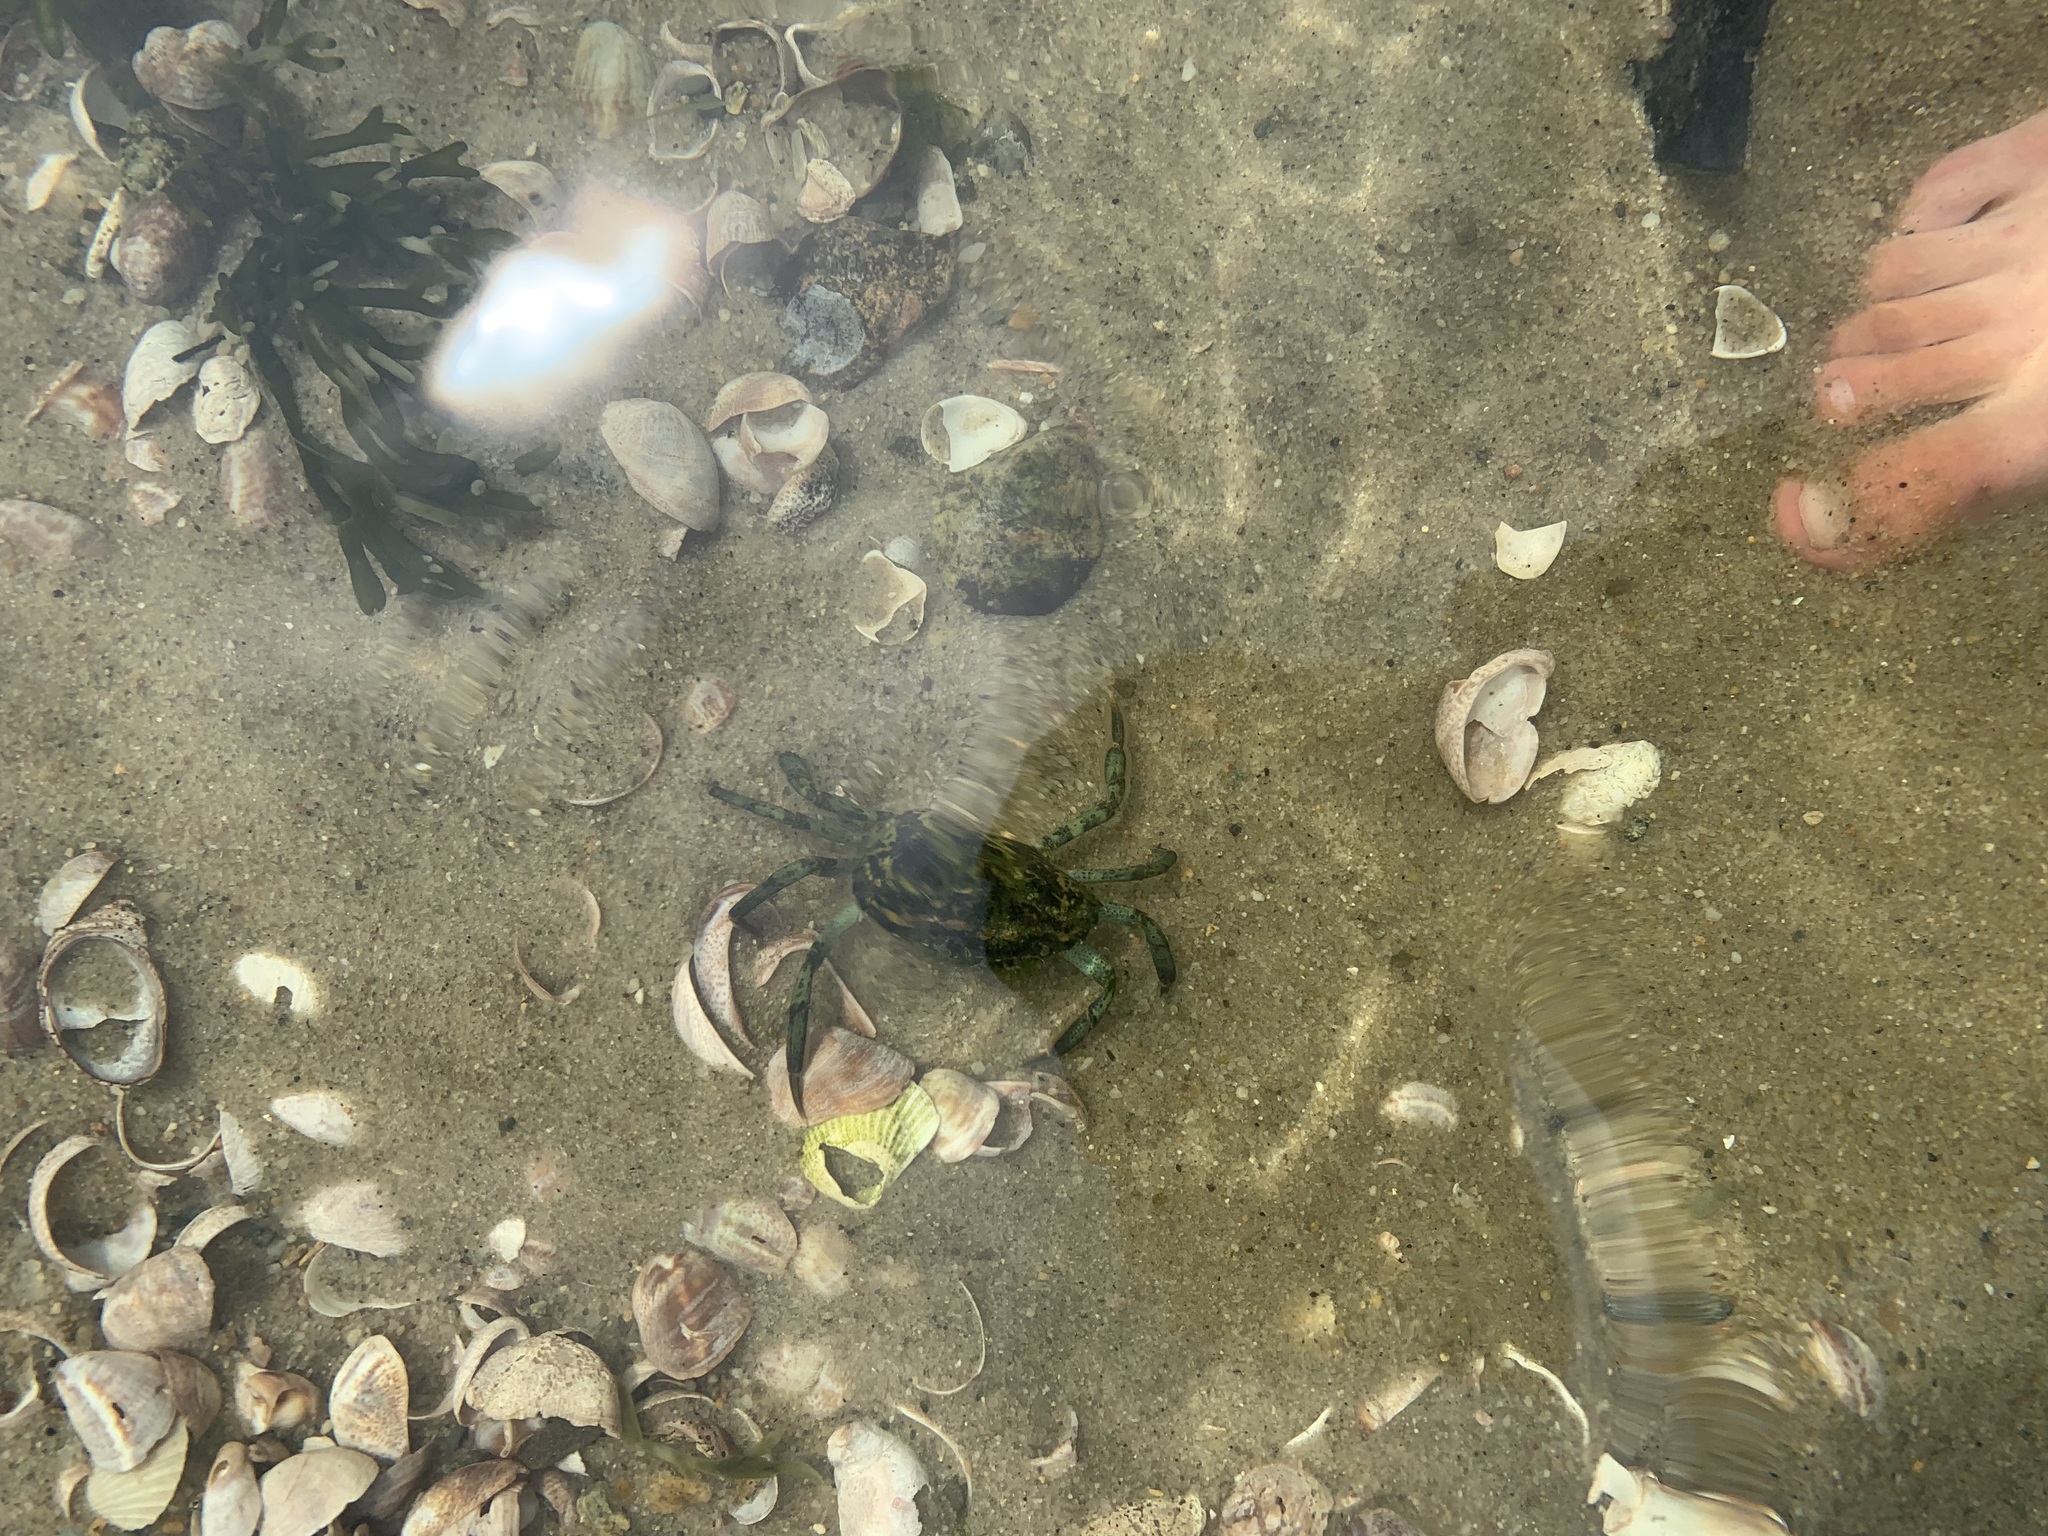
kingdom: Animalia
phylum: Arthropoda
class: Malacostraca
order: Decapoda
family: Carcinidae
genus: Carcinus
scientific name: Carcinus maenas
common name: European green crab
